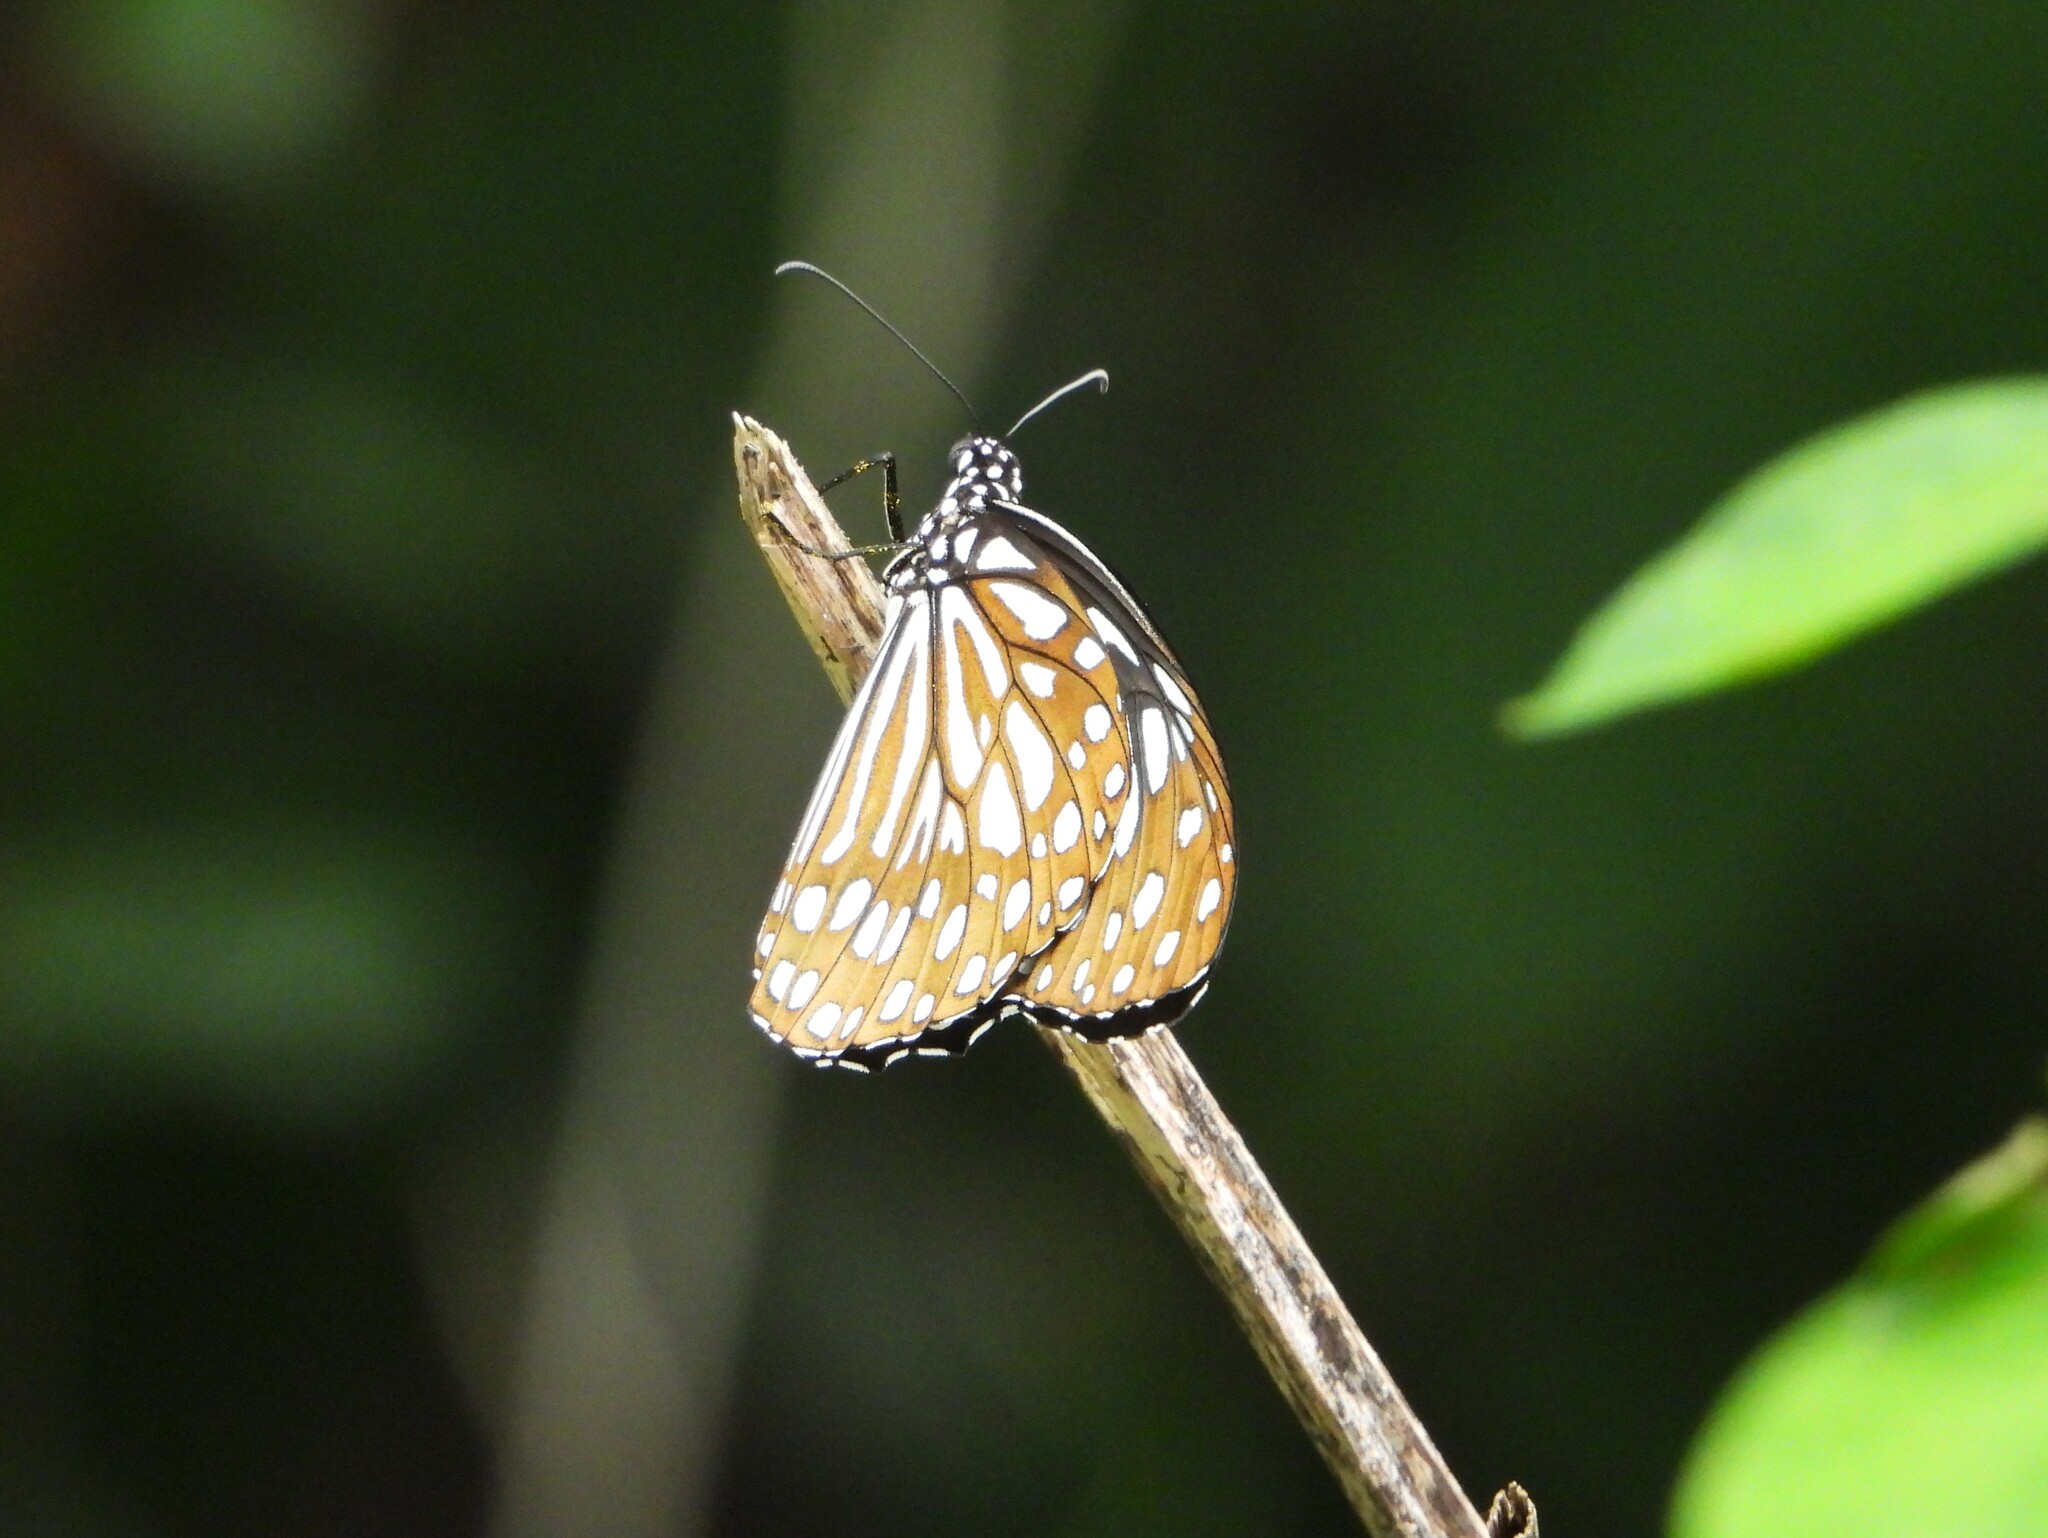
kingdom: Animalia
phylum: Arthropoda
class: Insecta
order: Lepidoptera
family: Nymphalidae
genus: Tirumala
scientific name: Tirumala limniace
